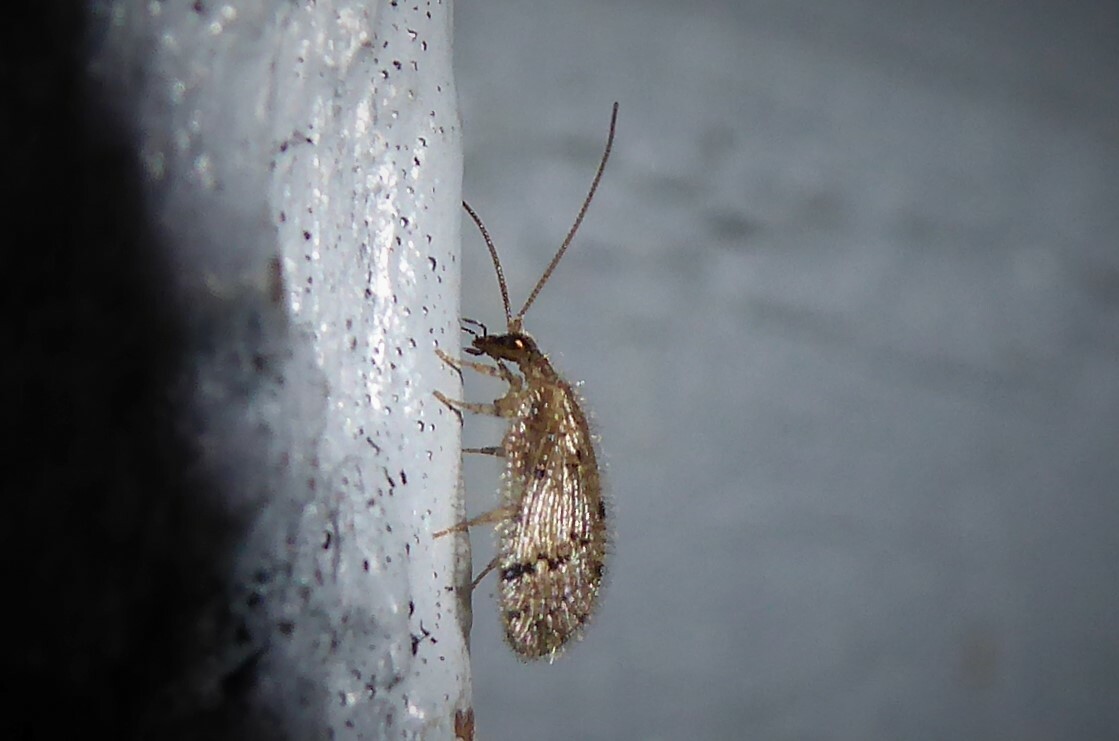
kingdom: Animalia
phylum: Arthropoda
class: Insecta
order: Neuroptera
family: Hemerobiidae
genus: Psectra
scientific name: Psectra nakaharai
